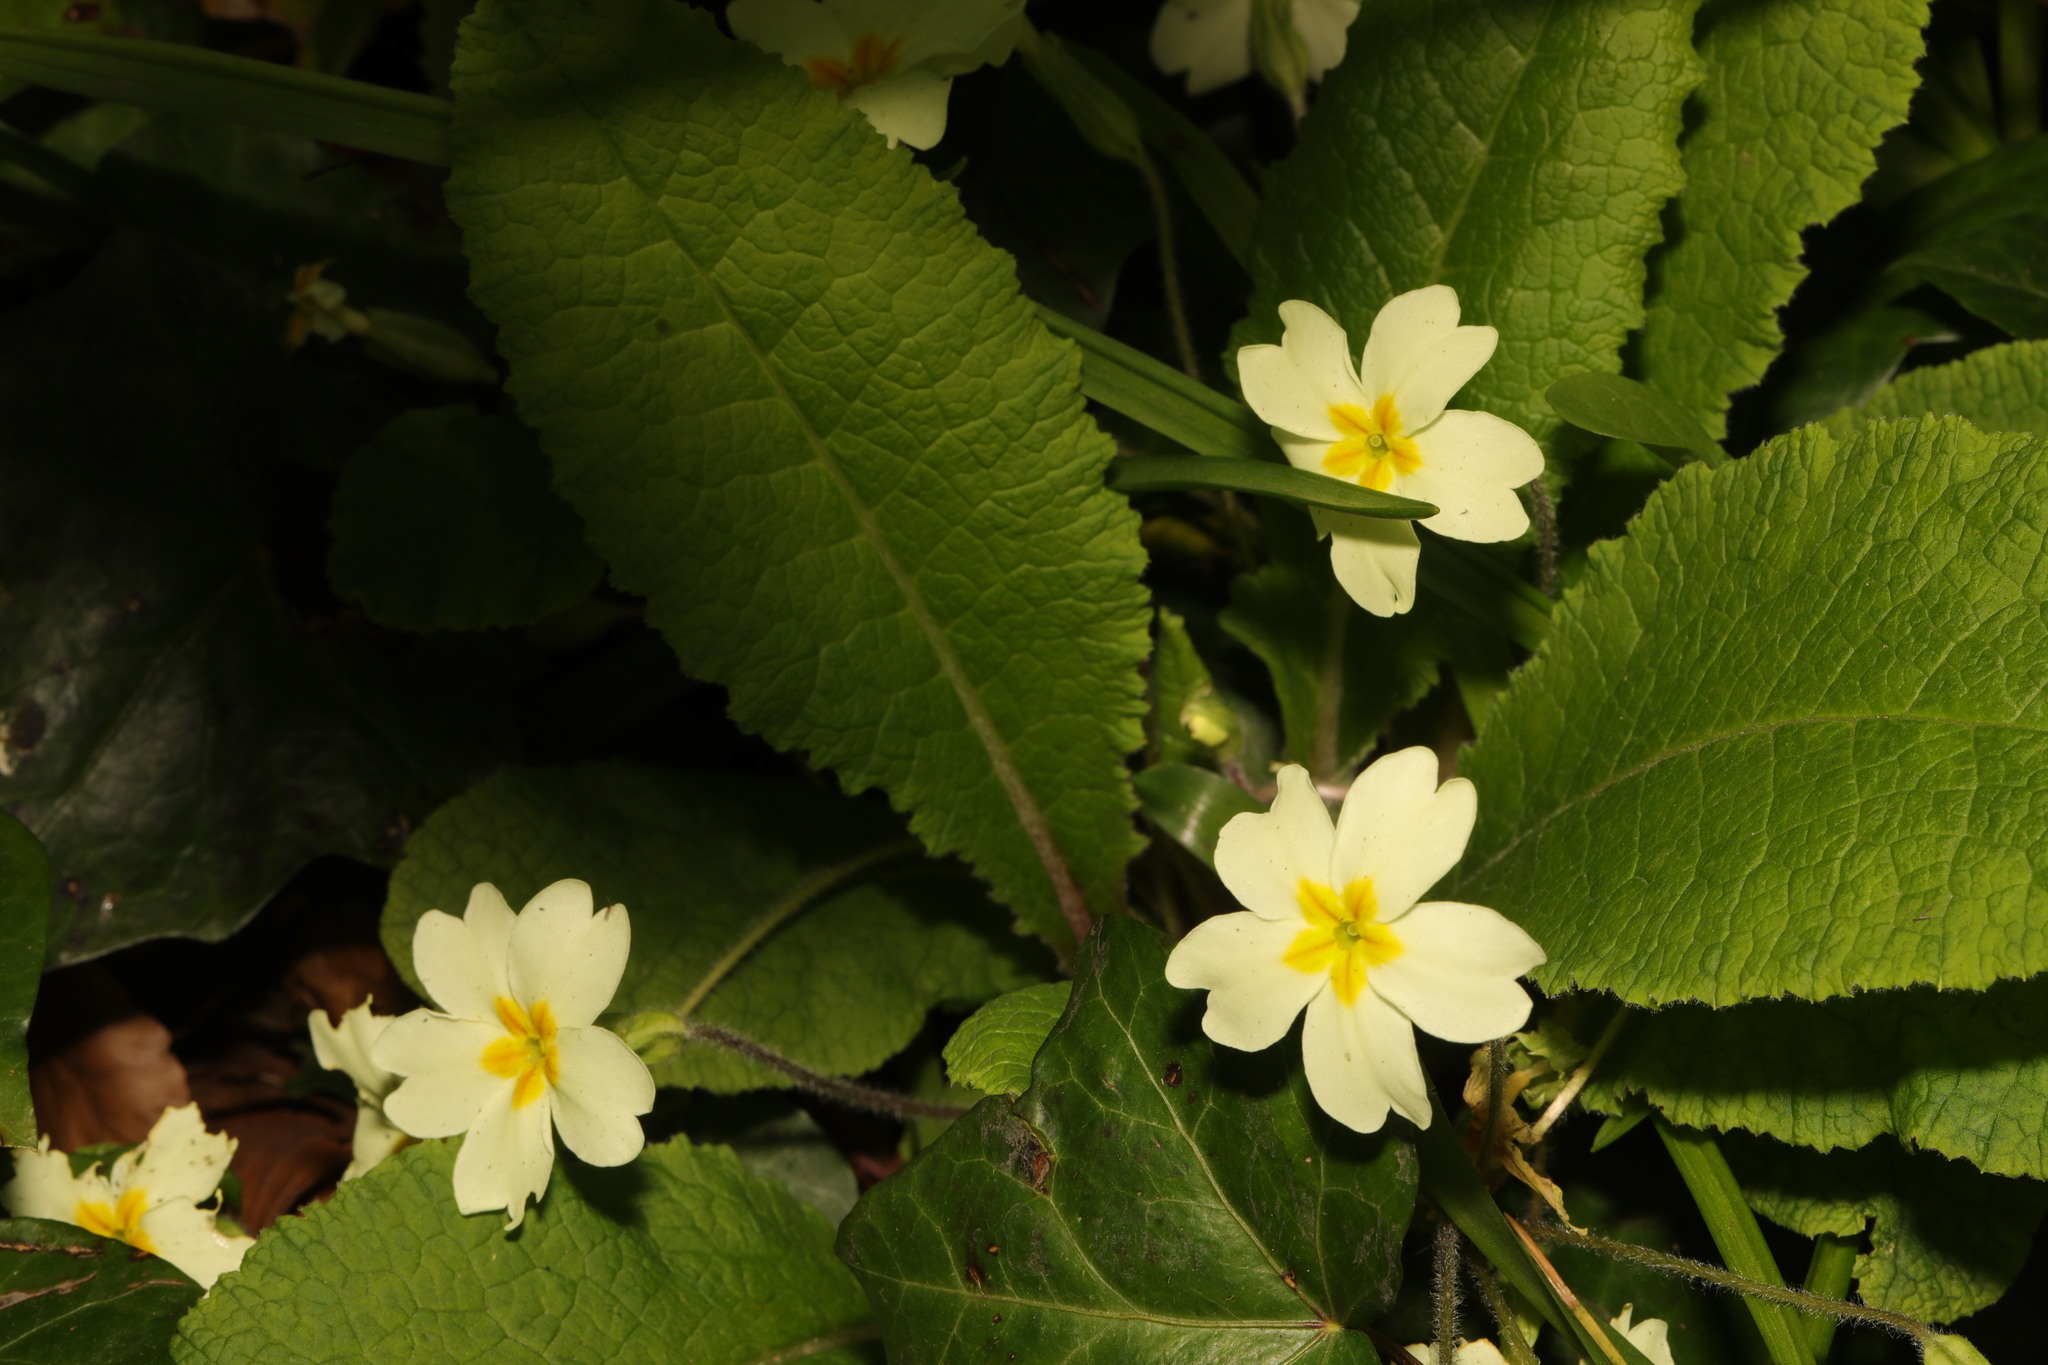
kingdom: Plantae
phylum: Tracheophyta
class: Magnoliopsida
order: Ericales
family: Primulaceae
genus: Primula
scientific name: Primula vulgaris
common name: Primrose
